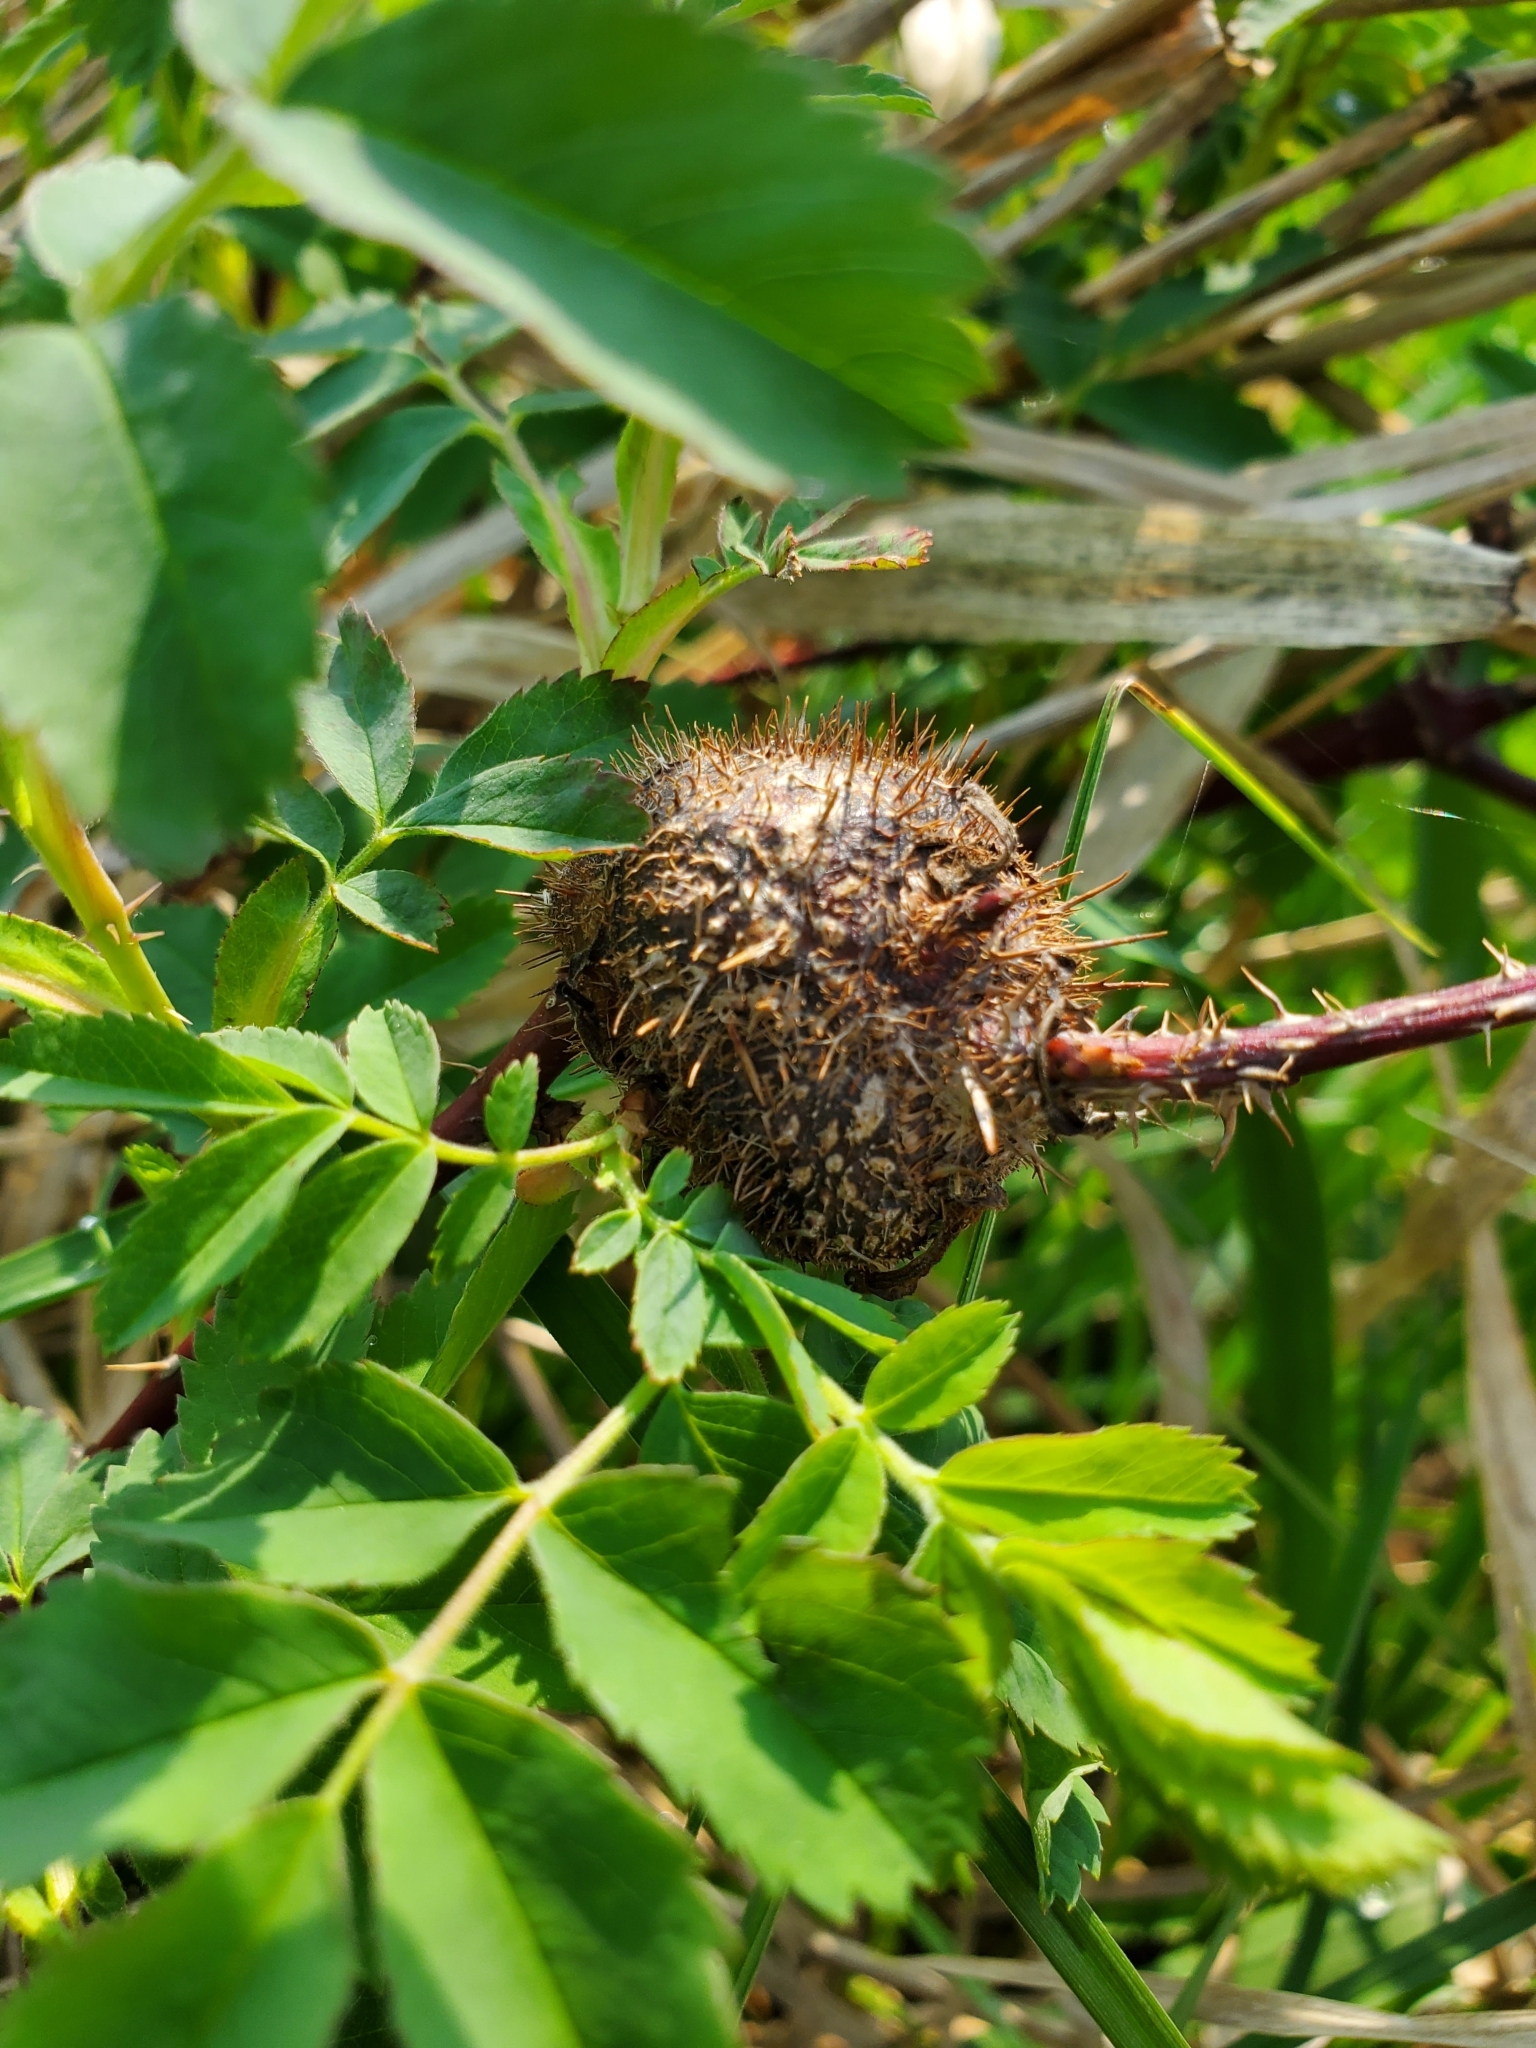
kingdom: Animalia
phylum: Arthropoda
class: Insecta
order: Hymenoptera
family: Cynipidae
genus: Diplolepis
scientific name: Diplolepis spinosa
